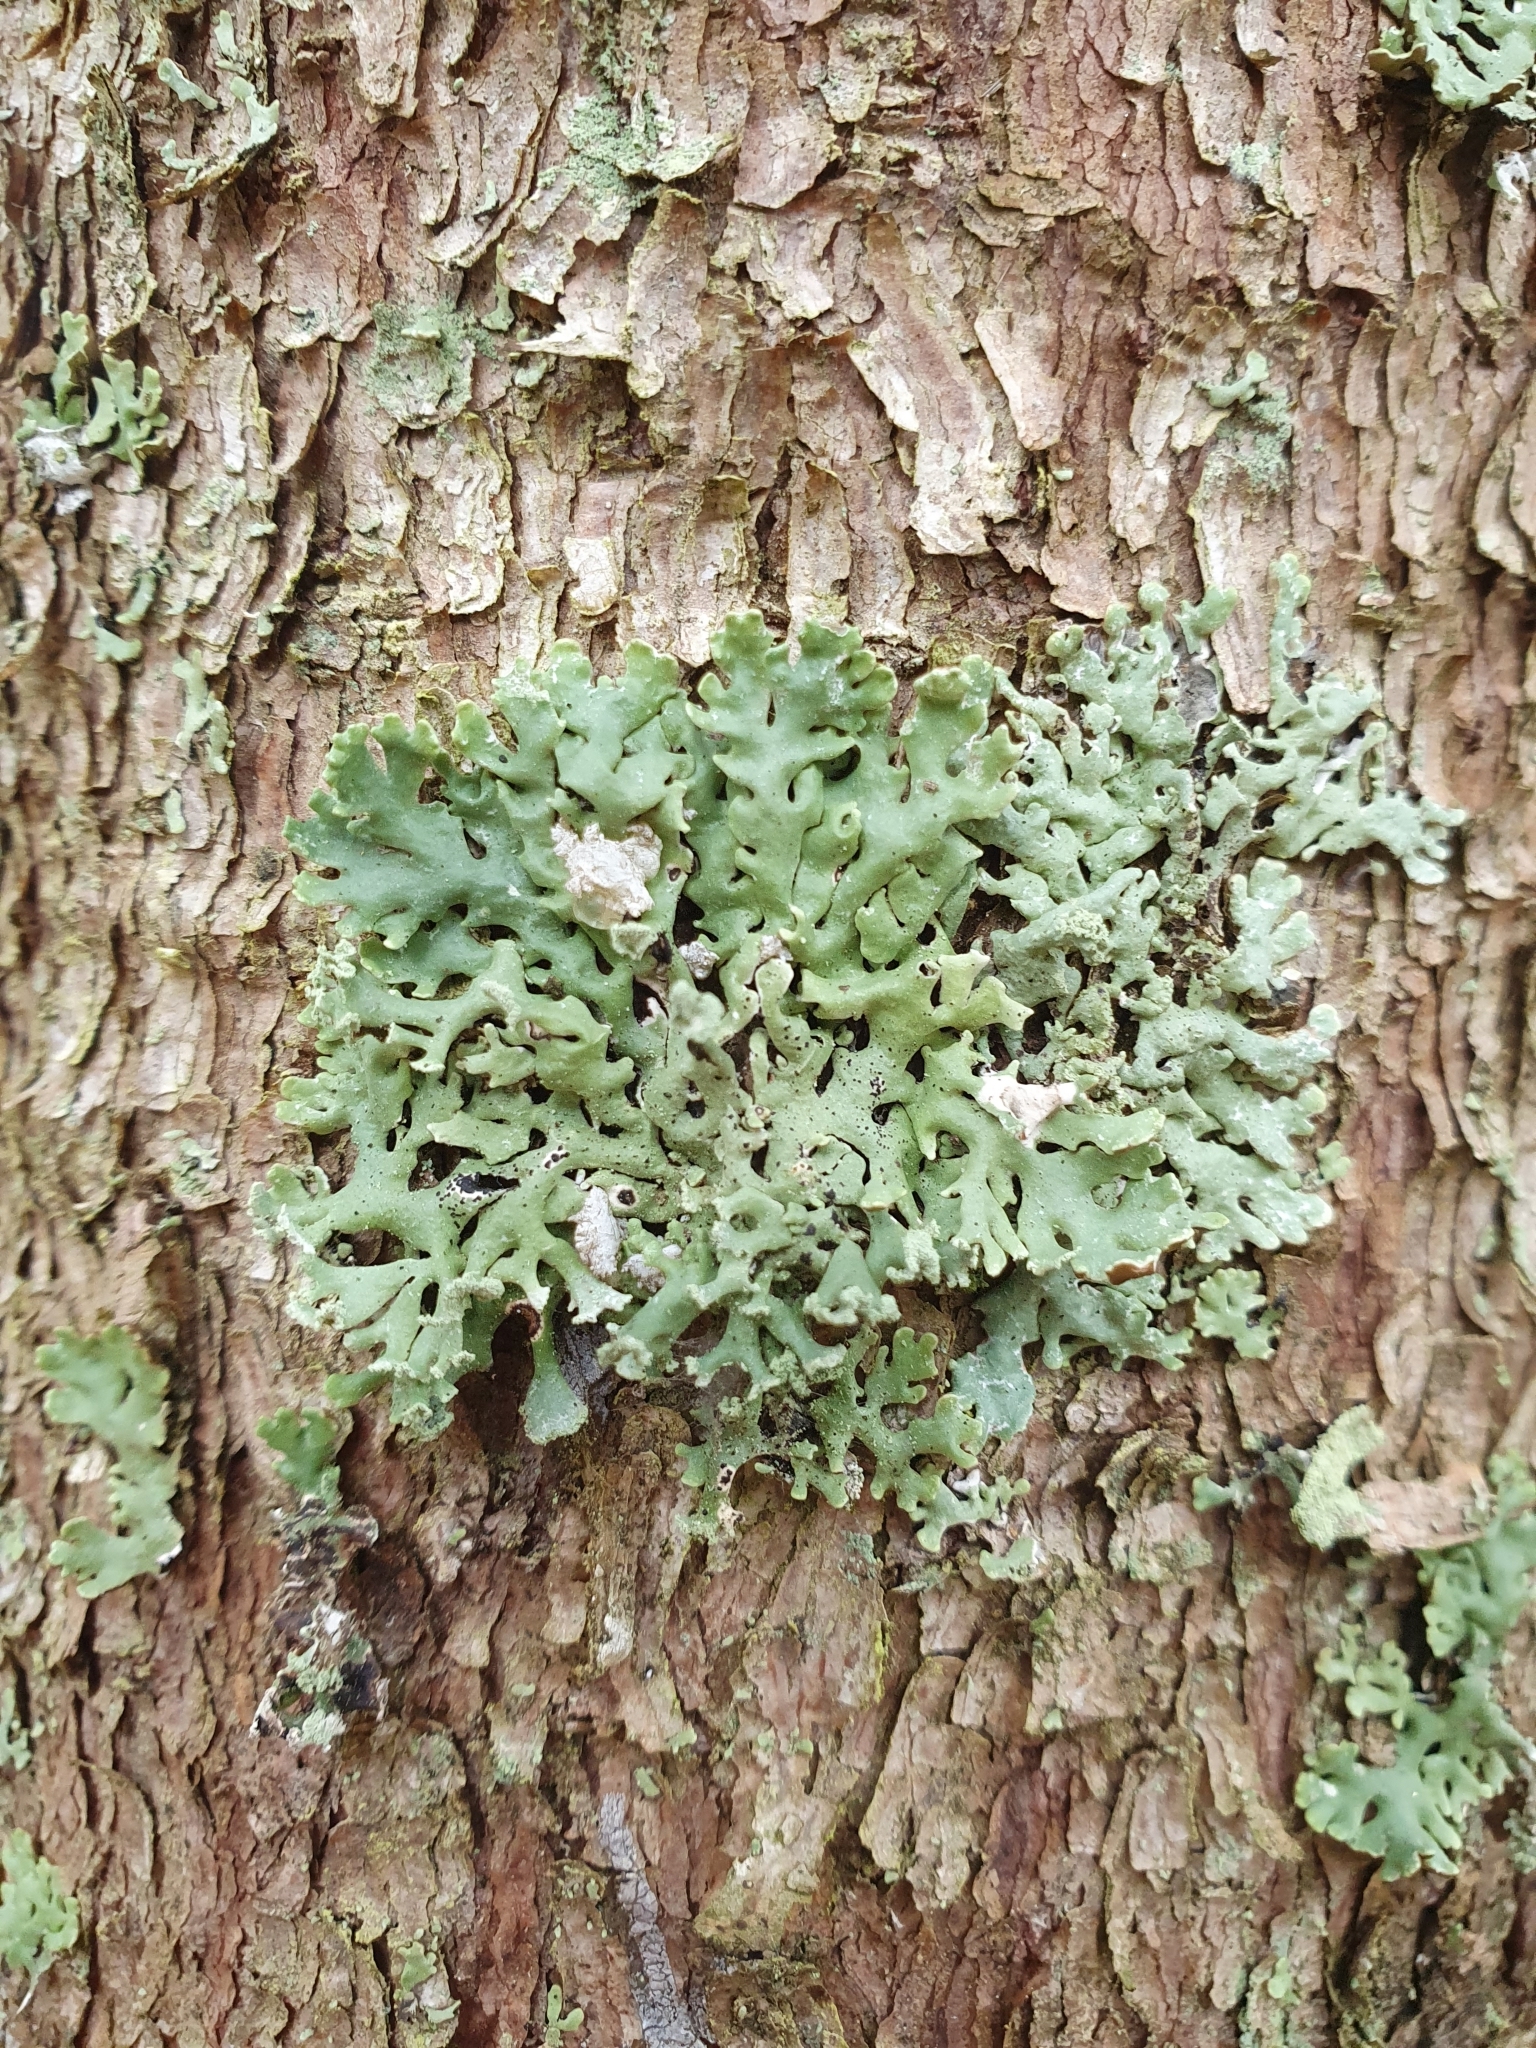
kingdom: Fungi
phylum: Ascomycota
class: Lecanoromycetes
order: Lecanorales
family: Parmeliaceae
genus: Hypogymnia
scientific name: Hypogymnia physodes
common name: Dark crottle
